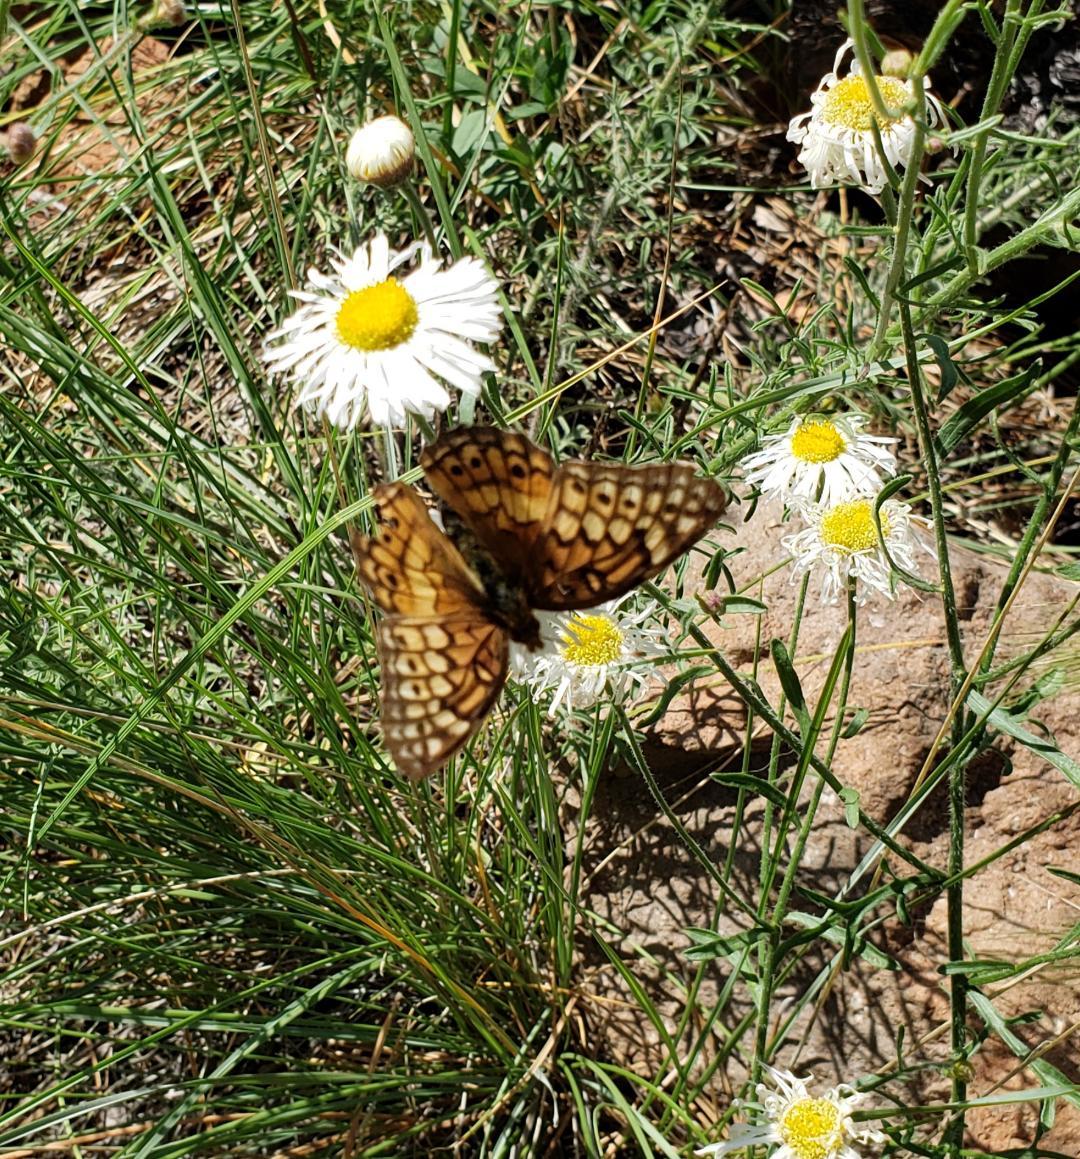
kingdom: Animalia
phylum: Arthropoda
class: Insecta
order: Lepidoptera
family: Nymphalidae
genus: Euptoieta
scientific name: Euptoieta claudia
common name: Variegated fritillary
